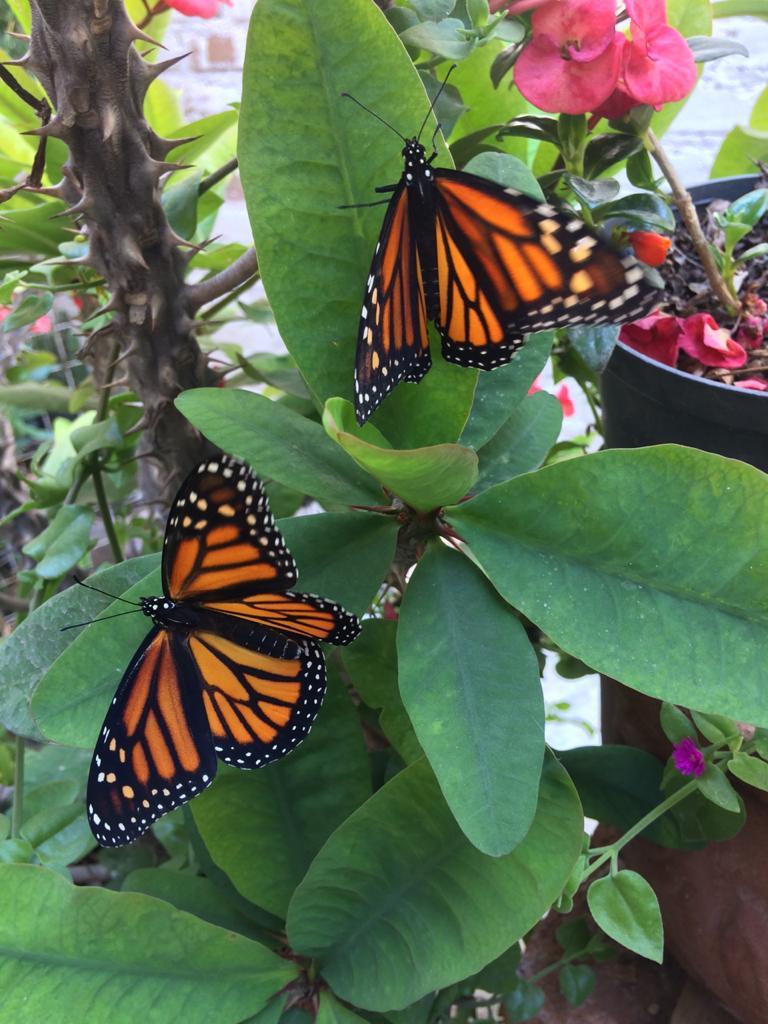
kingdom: Animalia
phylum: Arthropoda
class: Insecta
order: Lepidoptera
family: Nymphalidae
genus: Danaus
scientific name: Danaus plexippus
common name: Monarch
